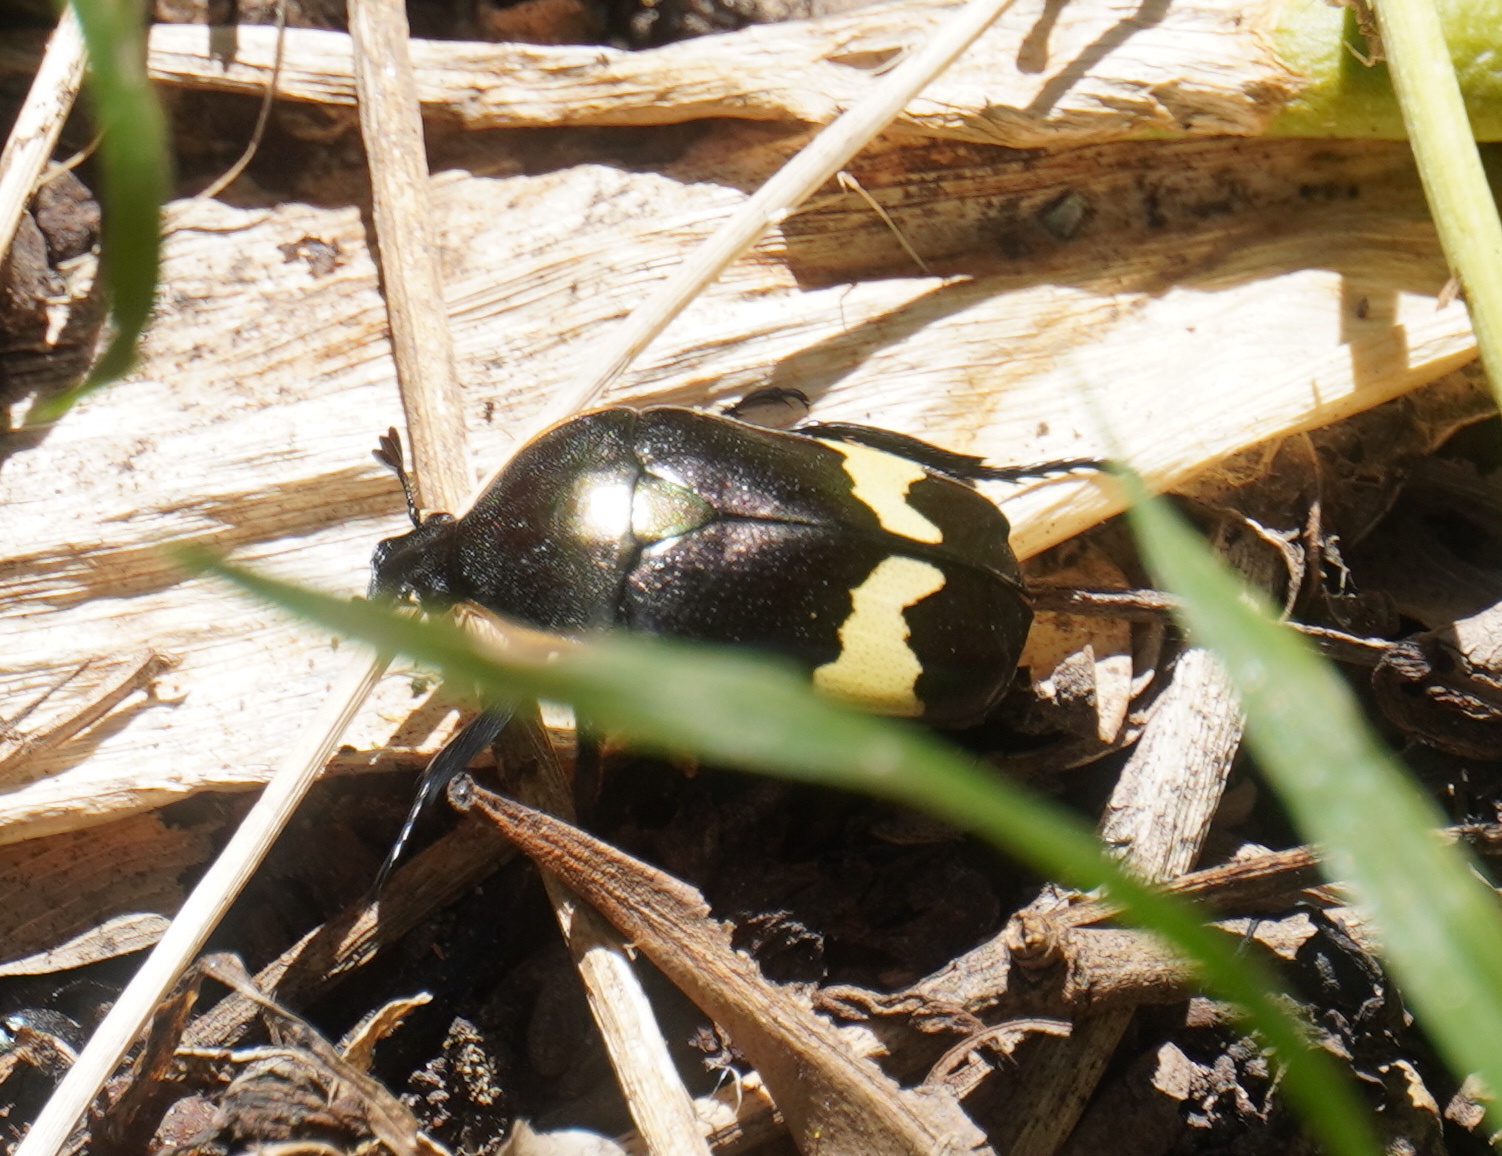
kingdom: Animalia
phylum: Arthropoda
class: Insecta
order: Coleoptera
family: Scarabaeidae
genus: Pedinorrhina
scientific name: Pedinorrhina
